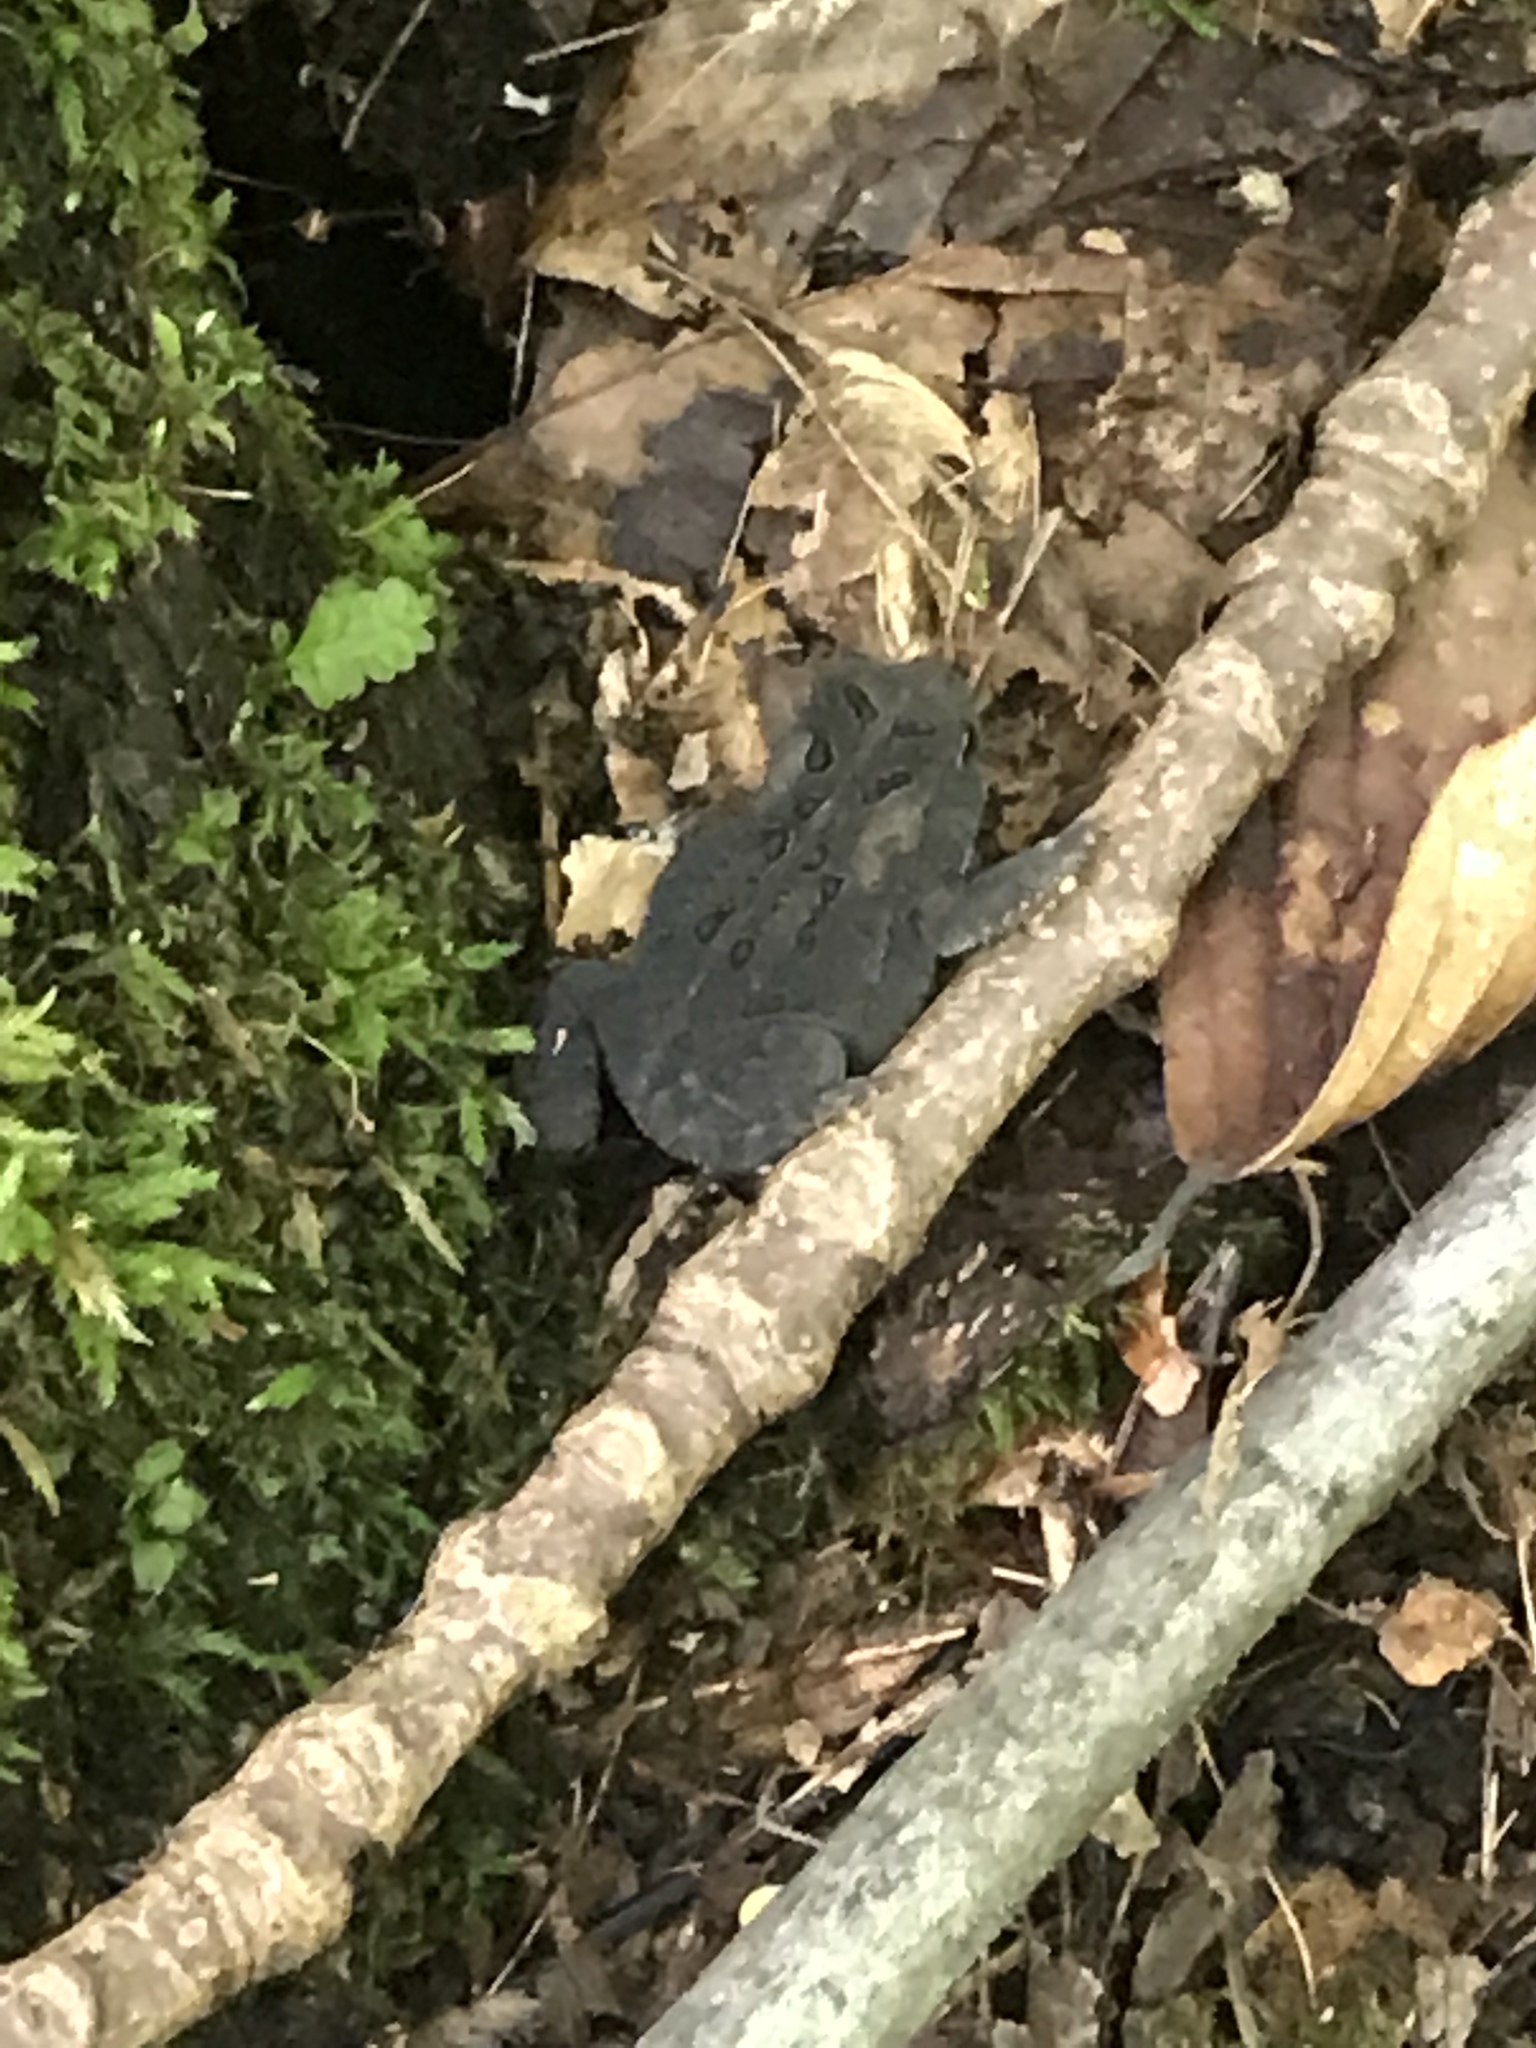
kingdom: Animalia
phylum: Chordata
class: Amphibia
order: Anura
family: Bufonidae
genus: Anaxyrus
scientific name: Anaxyrus americanus
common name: American toad
